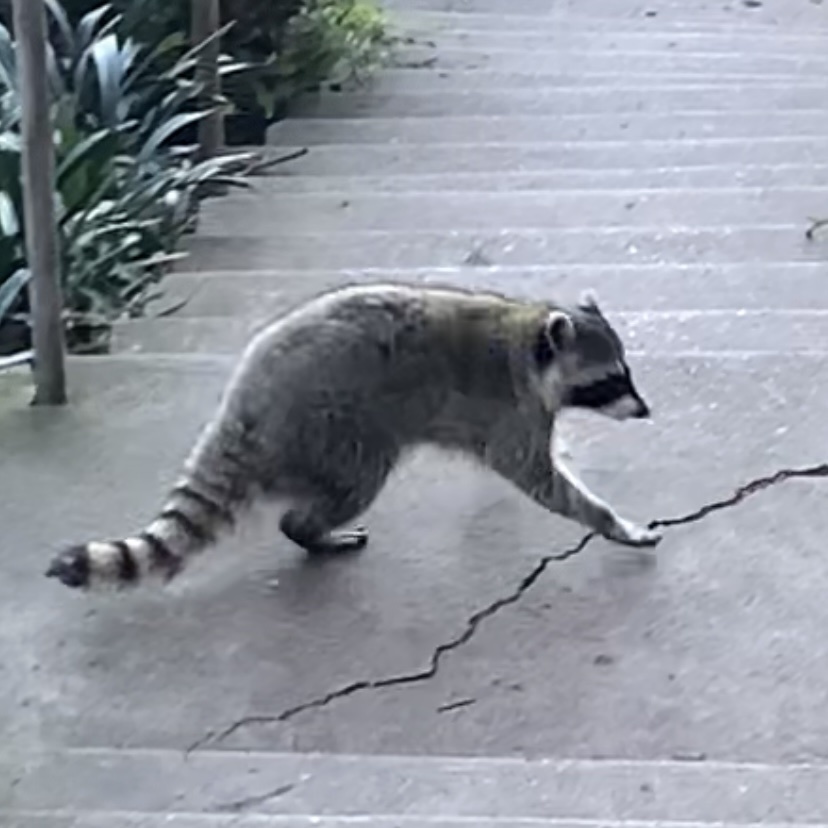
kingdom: Animalia
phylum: Chordata
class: Mammalia
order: Carnivora
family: Procyonidae
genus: Procyon
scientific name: Procyon lotor
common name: Raccoon
